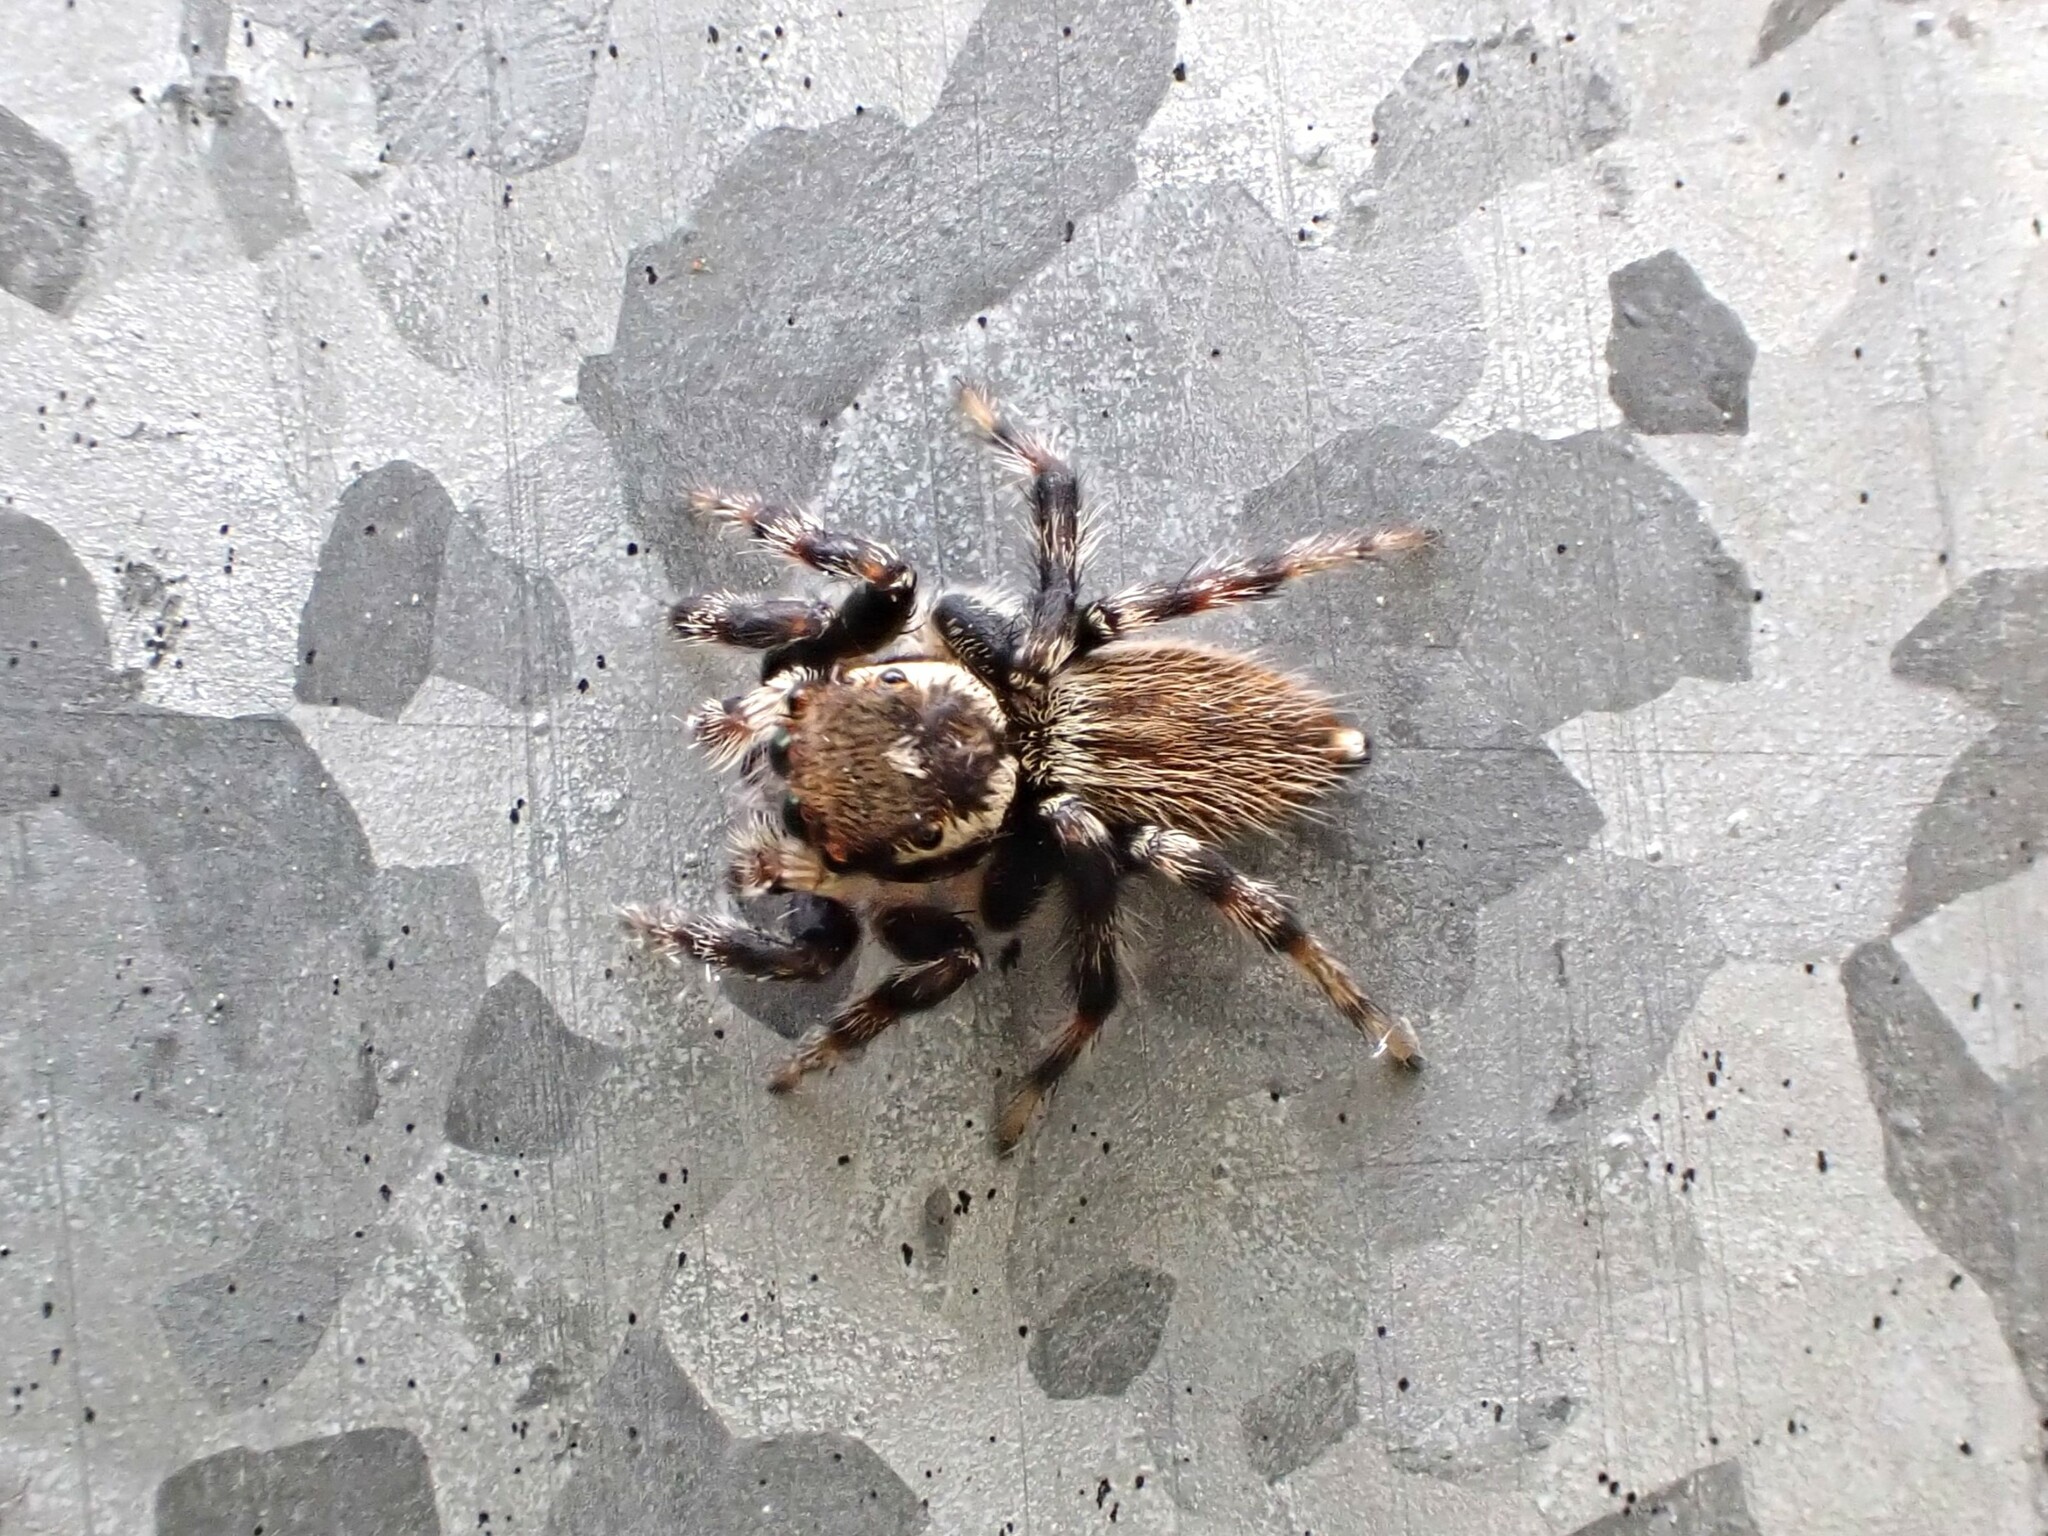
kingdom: Animalia
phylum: Arthropoda
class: Arachnida
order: Araneae
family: Salticidae
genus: Maratus
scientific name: Maratus griseus
